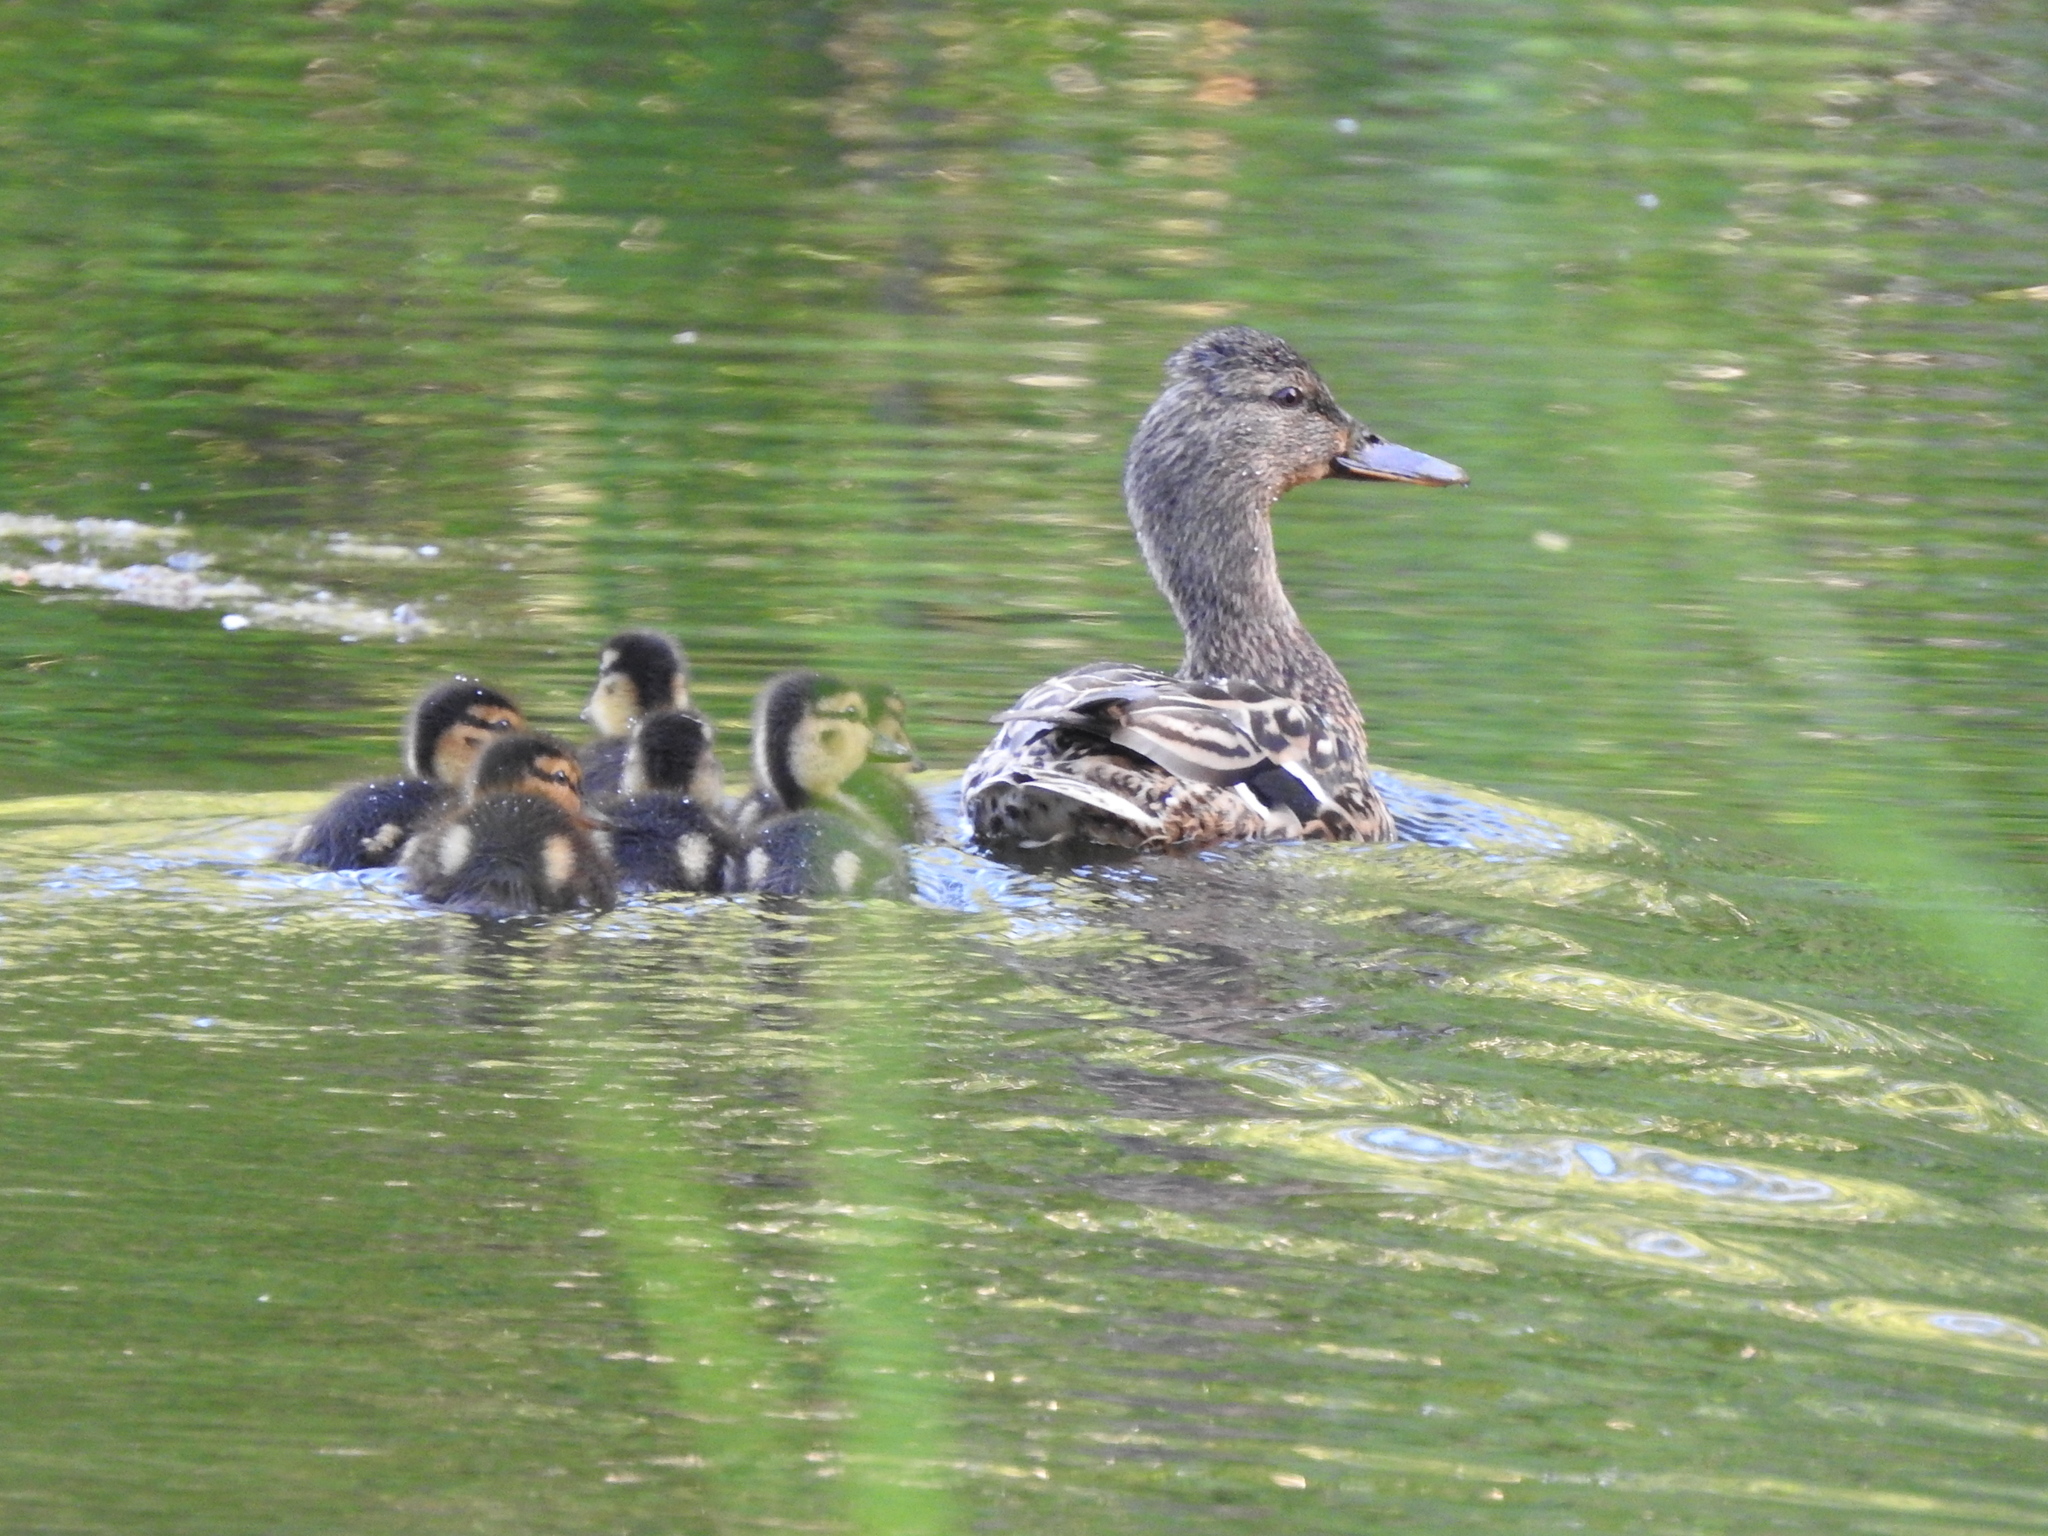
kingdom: Animalia
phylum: Chordata
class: Aves
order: Anseriformes
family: Anatidae
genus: Anas
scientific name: Anas platyrhynchos
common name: Mallard
